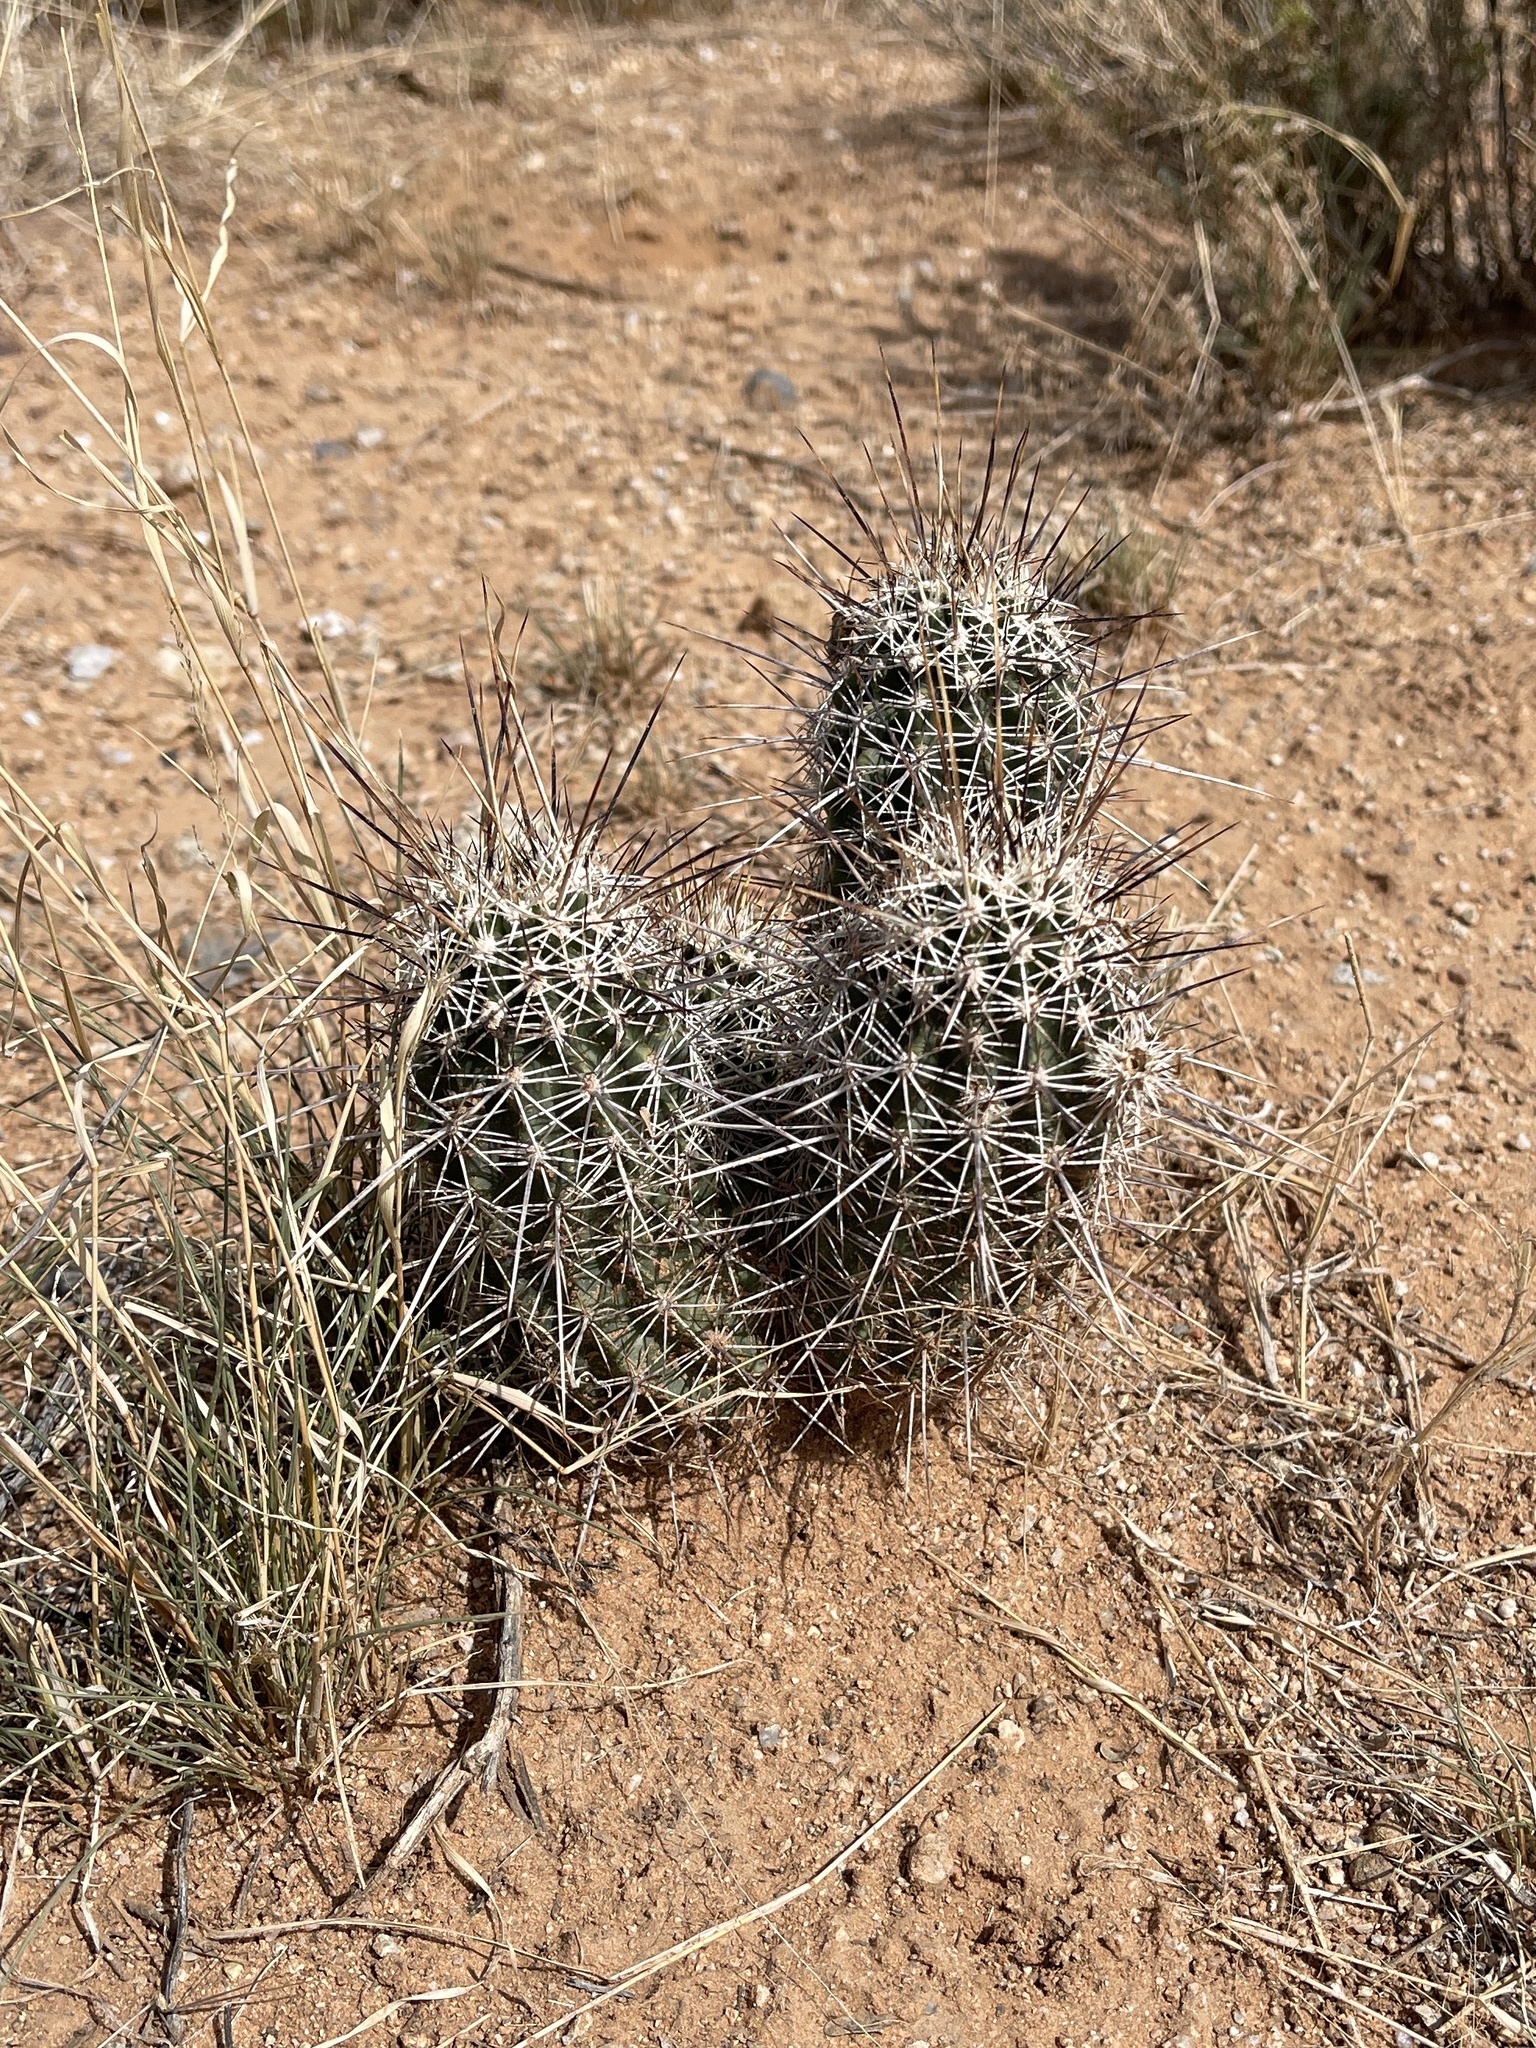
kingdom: Plantae
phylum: Tracheophyta
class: Magnoliopsida
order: Caryophyllales
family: Cactaceae
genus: Echinocereus
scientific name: Echinocereus fasciculatus
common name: Bundle hedgehog
